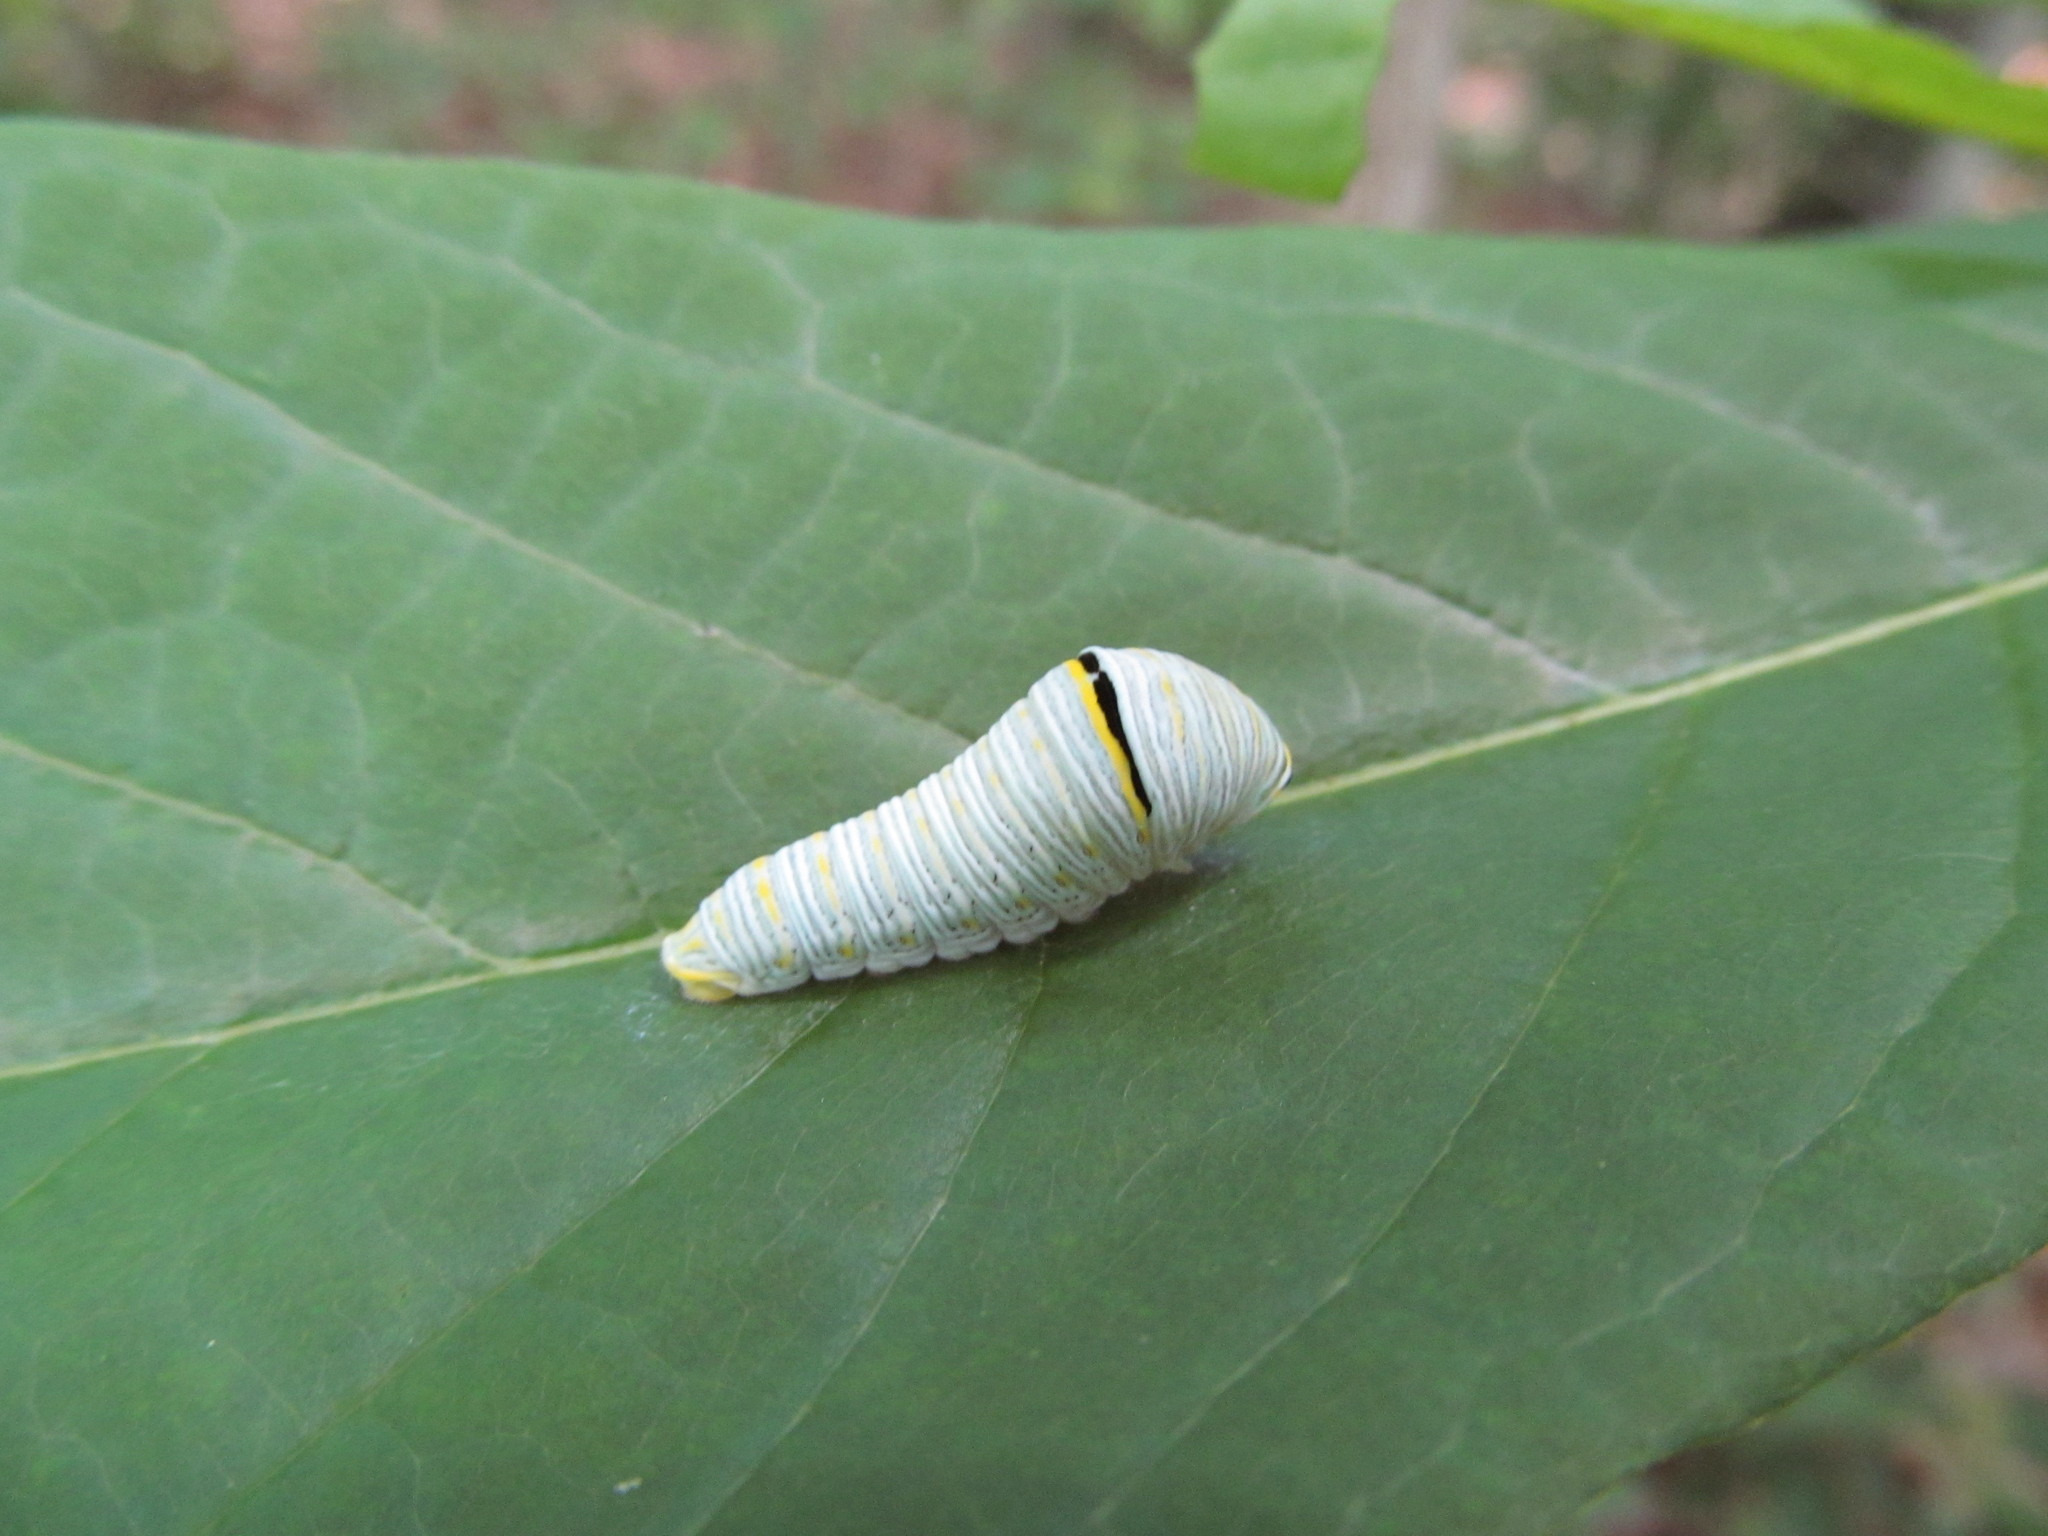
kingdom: Animalia
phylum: Arthropoda
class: Insecta
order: Lepidoptera
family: Papilionidae
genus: Protographium
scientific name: Protographium marcellus
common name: Zebra swallowtail
